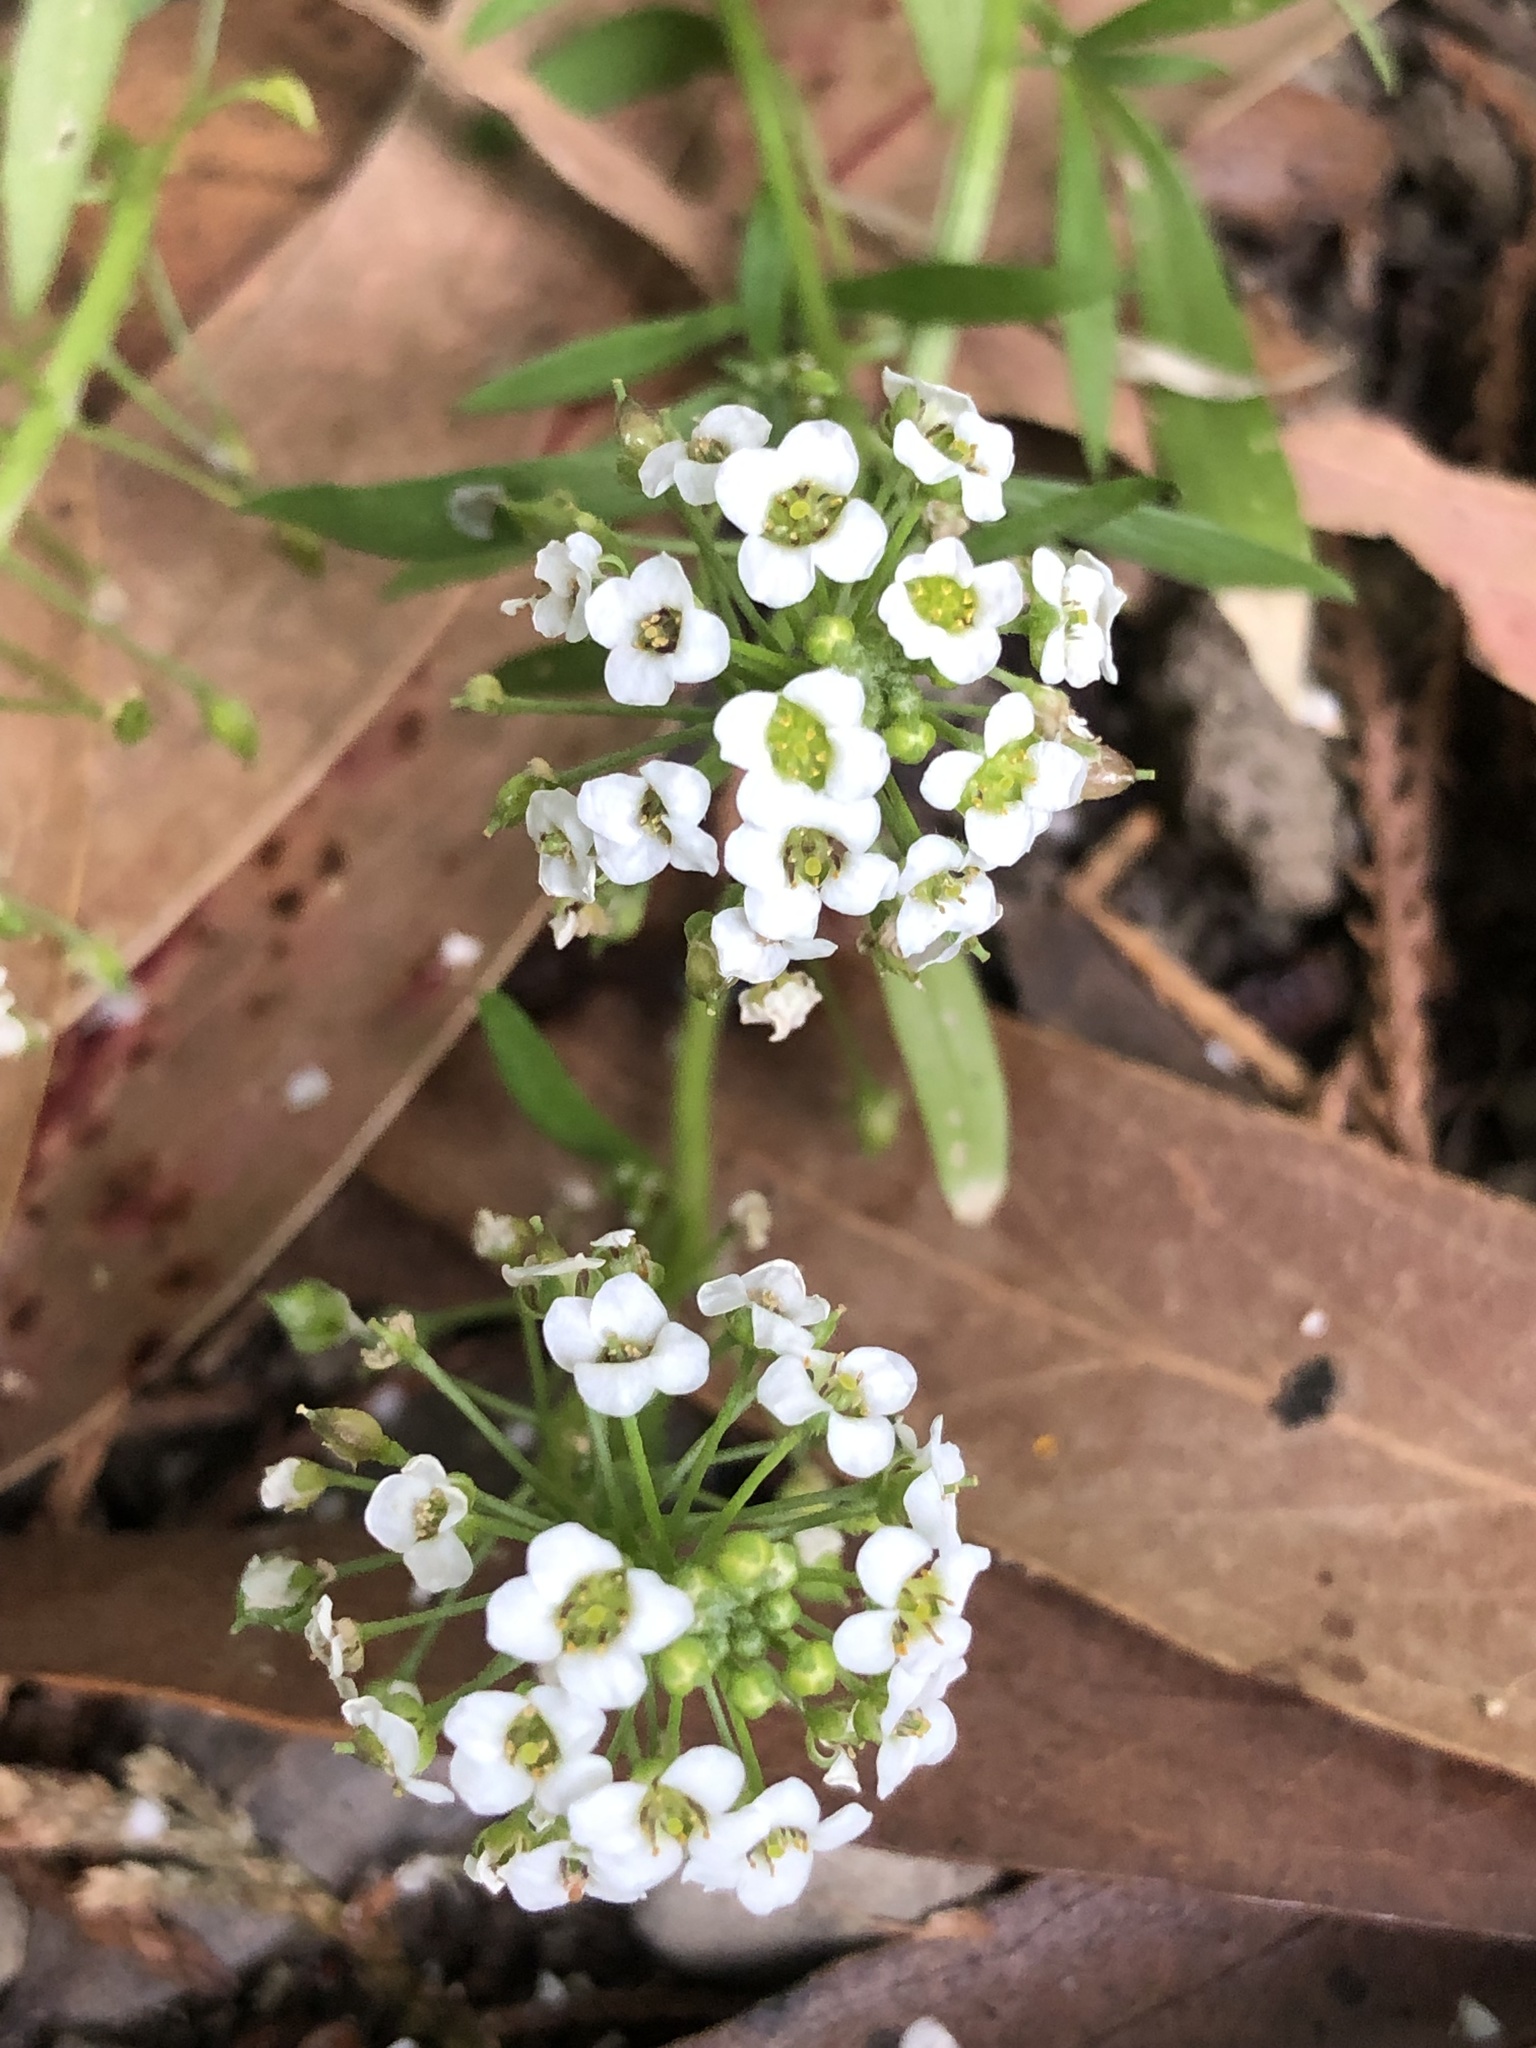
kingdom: Plantae
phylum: Tracheophyta
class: Magnoliopsida
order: Brassicales
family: Brassicaceae
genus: Lobularia
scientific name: Lobularia maritima
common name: Sweet alison
